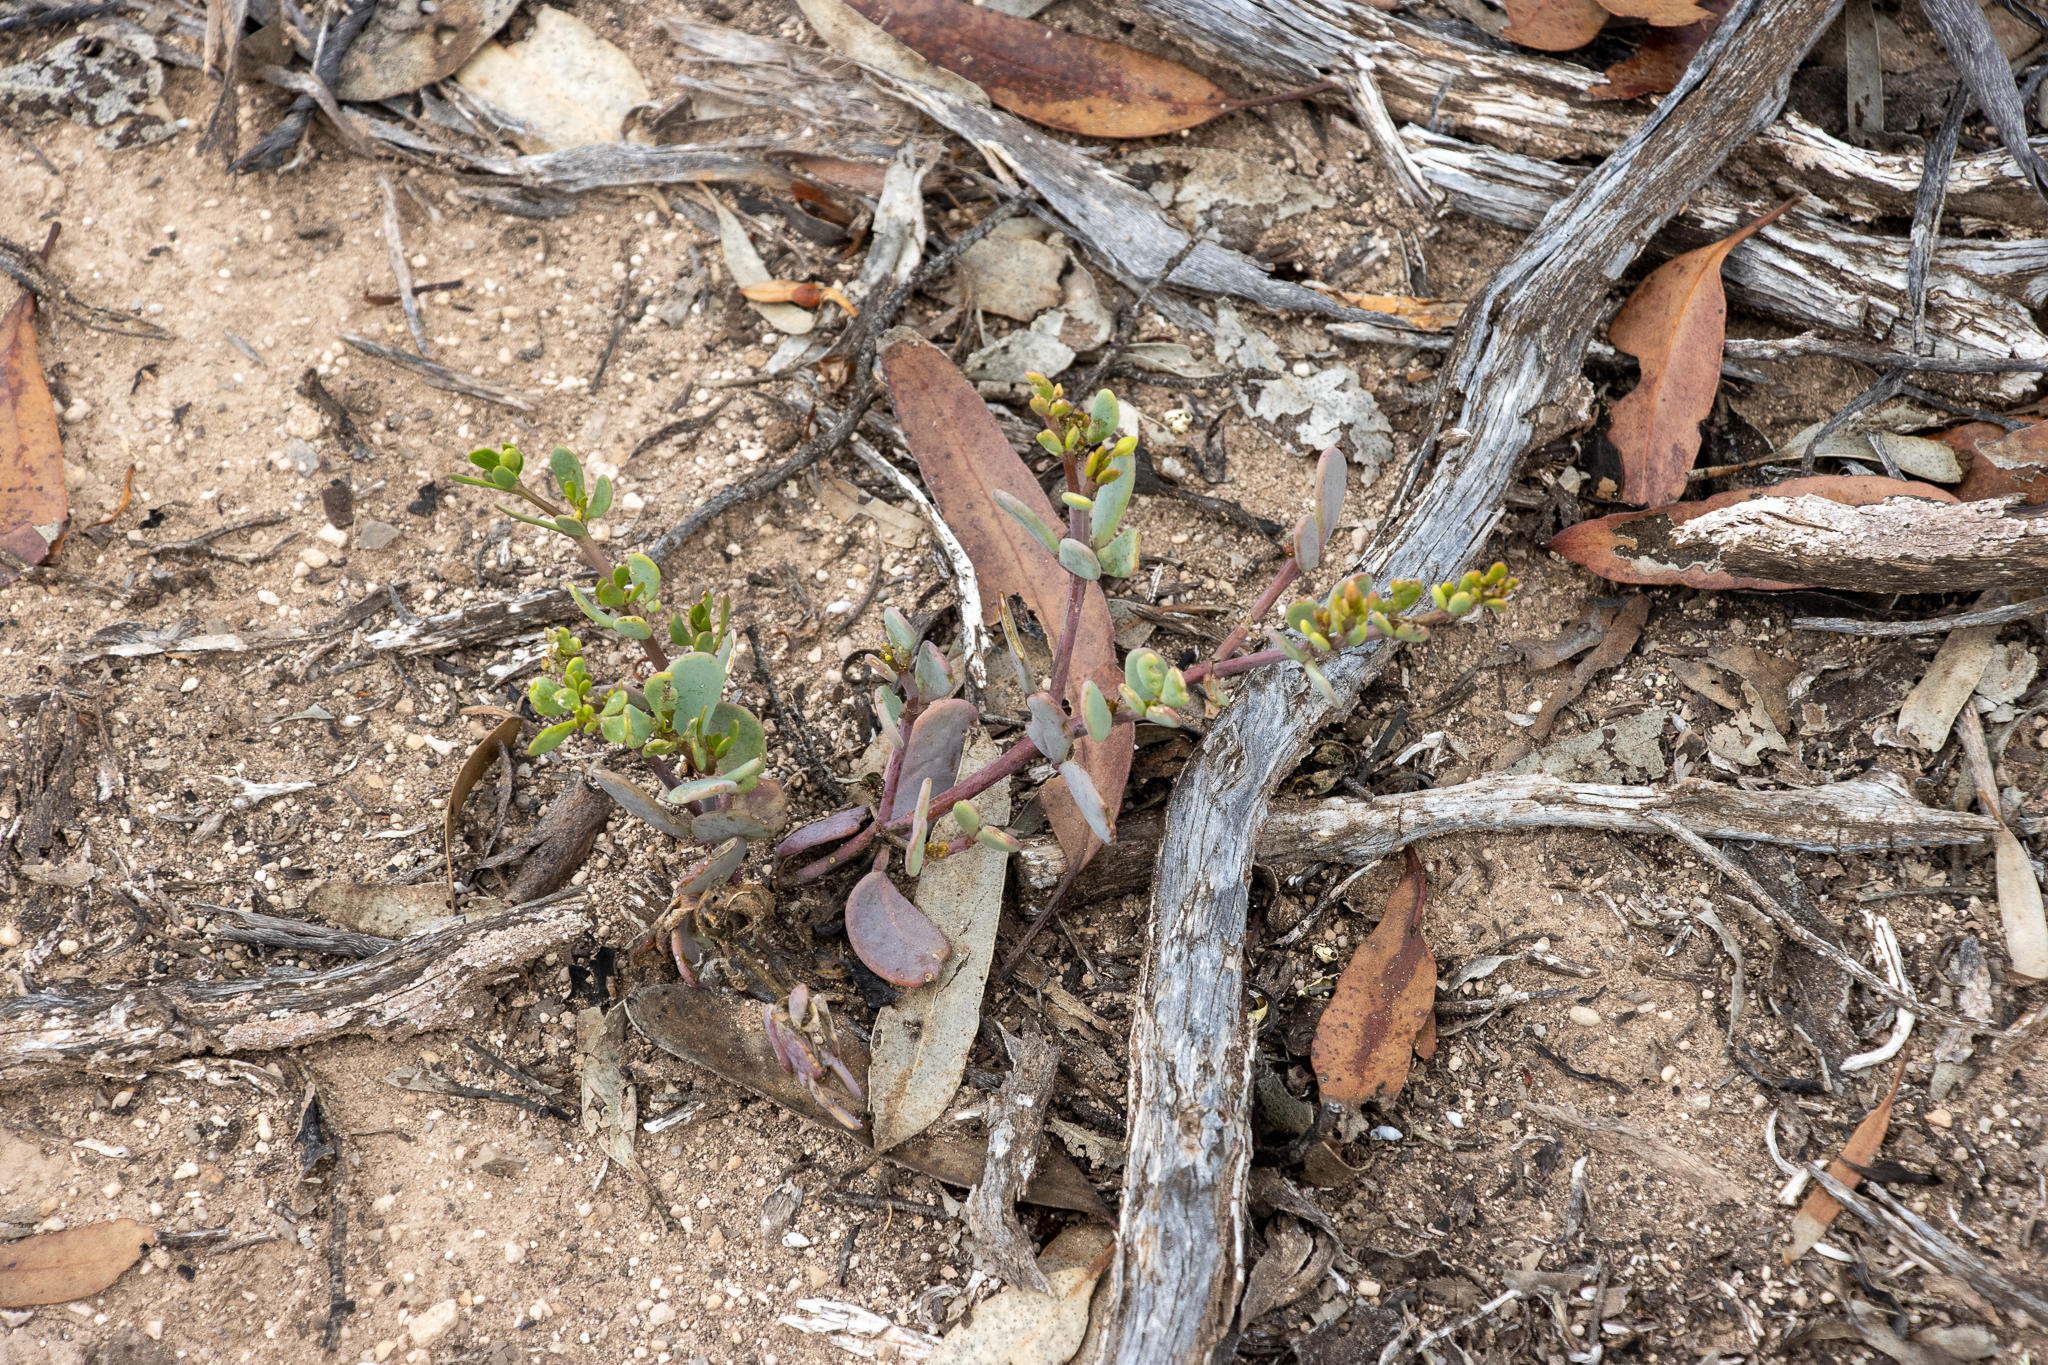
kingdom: Plantae
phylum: Tracheophyta
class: Magnoliopsida
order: Zygophyllales
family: Zygophyllaceae
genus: Roepera
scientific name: Roepera glauca
